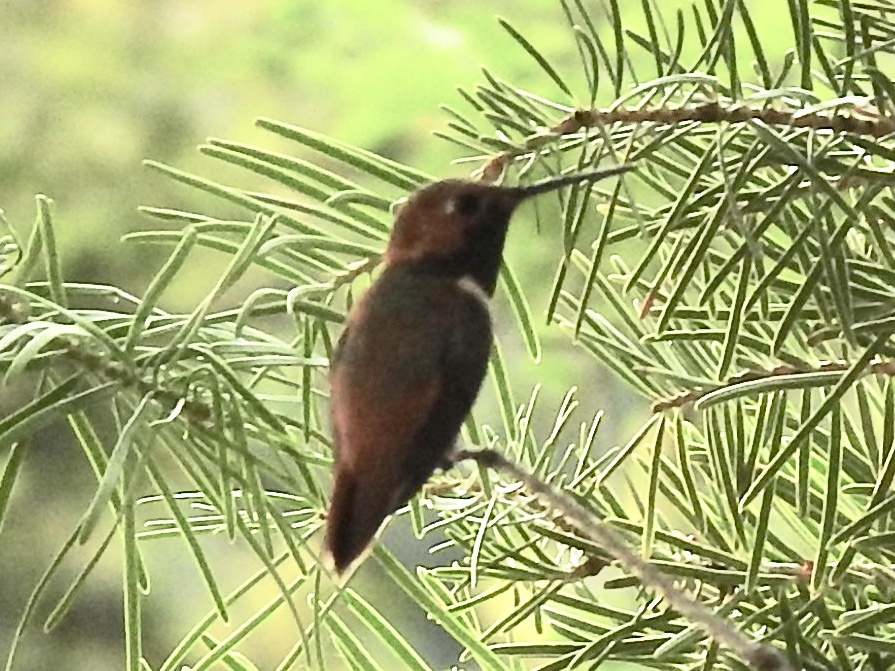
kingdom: Animalia
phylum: Chordata
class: Aves
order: Apodiformes
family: Trochilidae
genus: Selasphorus
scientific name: Selasphorus rufus
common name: Rufous hummingbird
